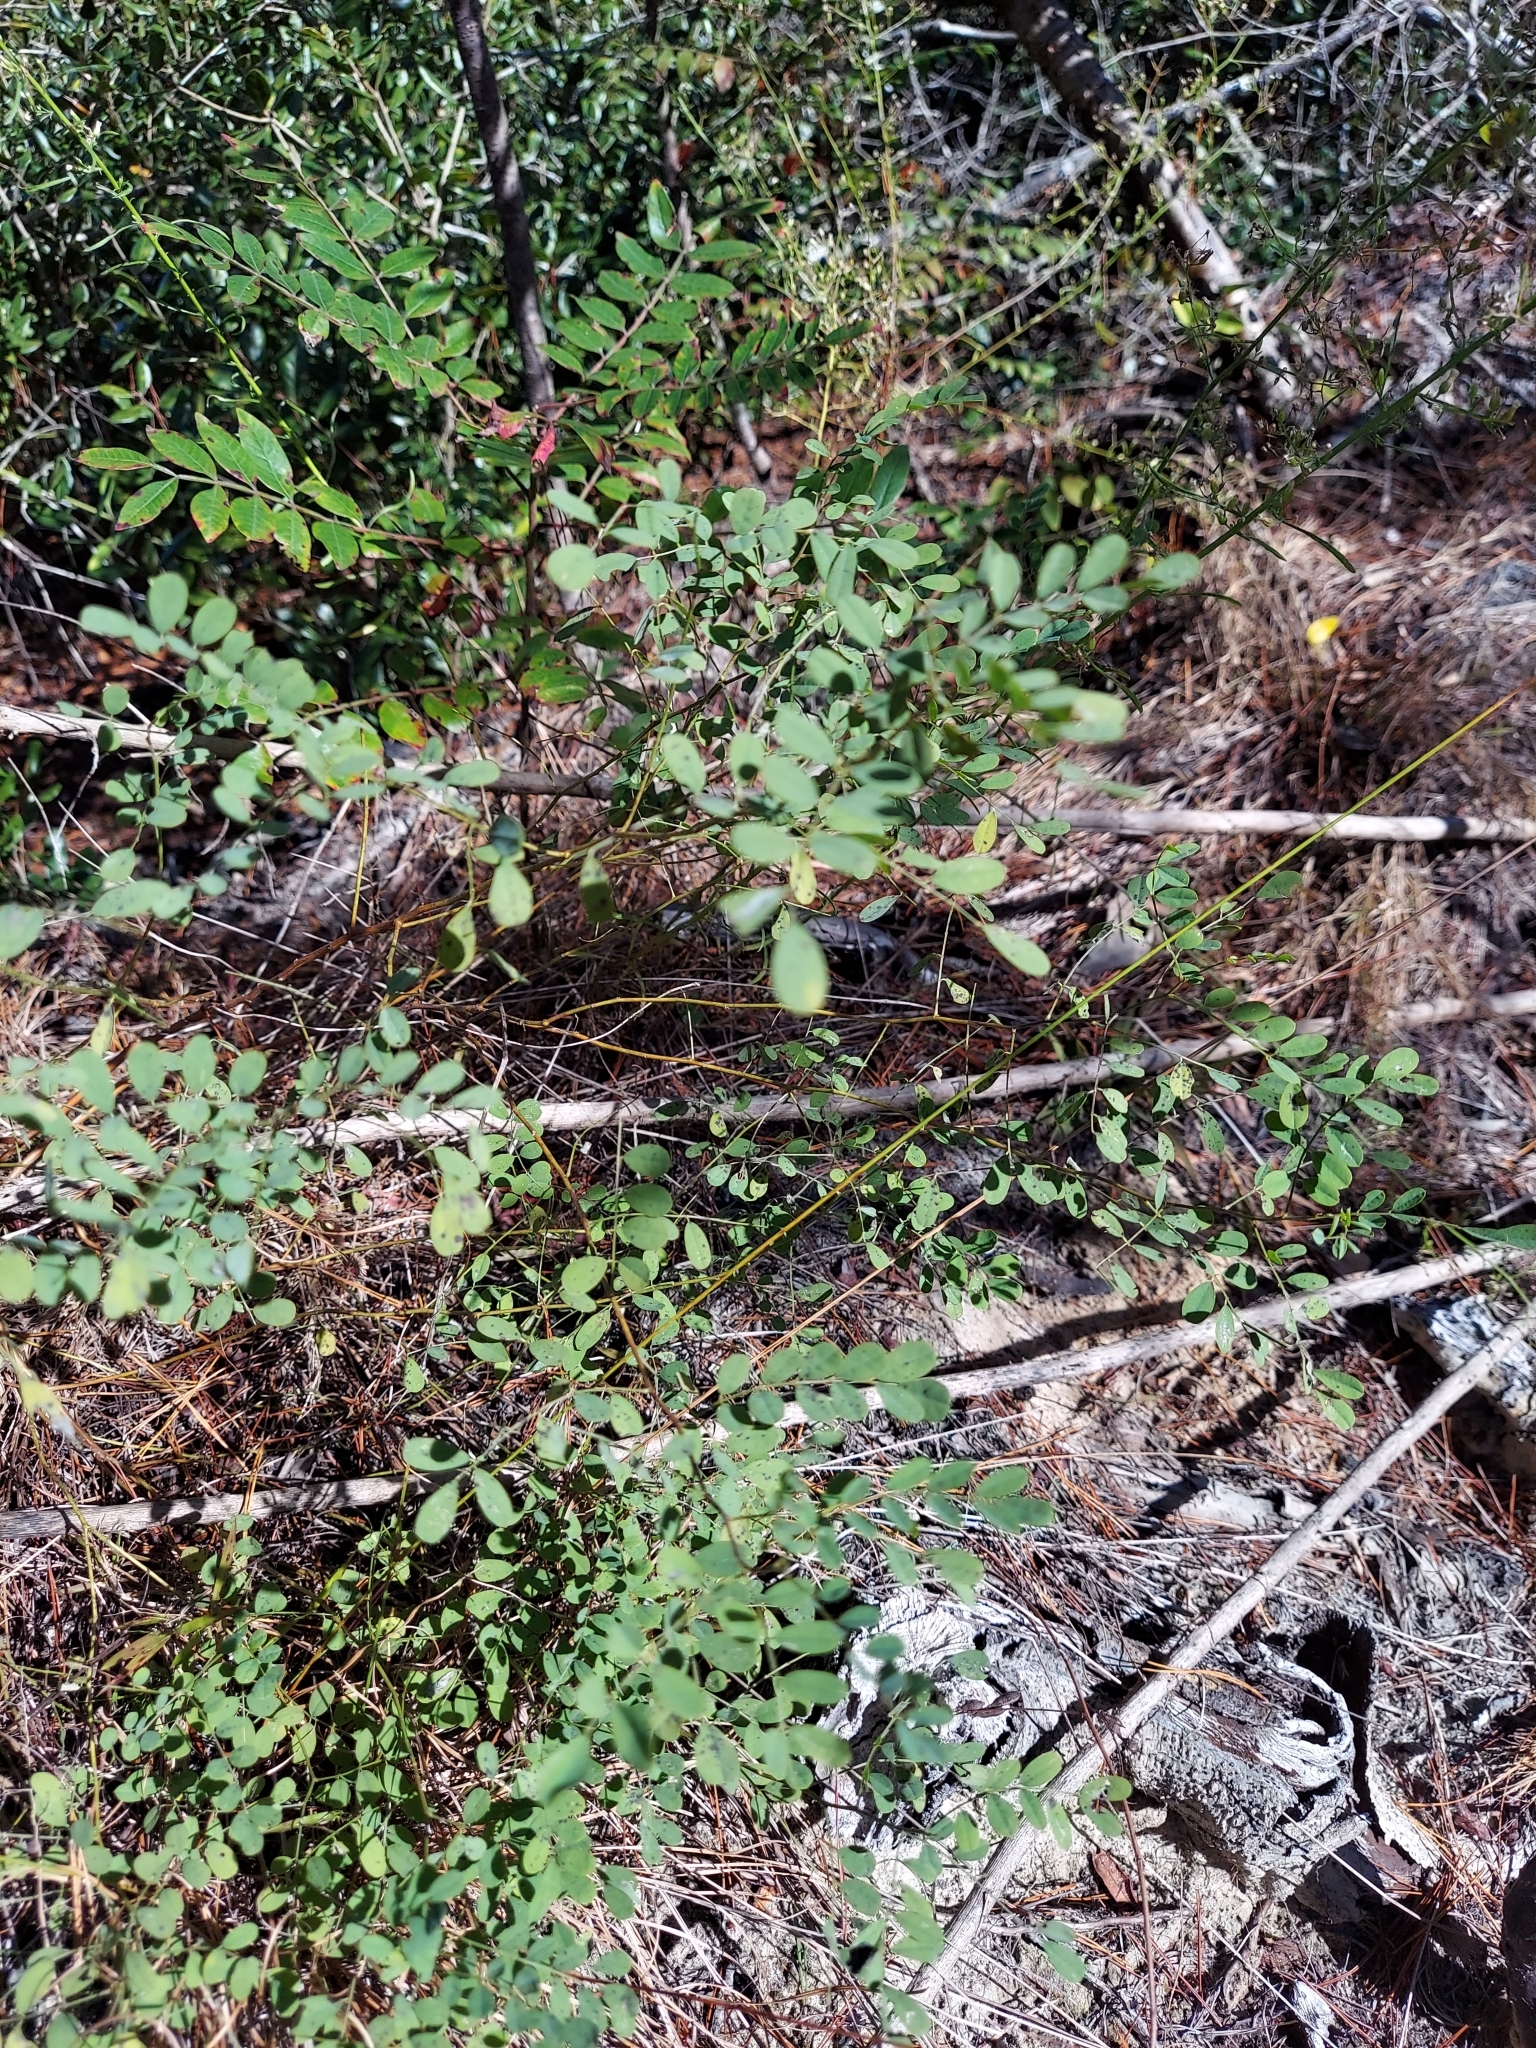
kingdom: Plantae
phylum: Tracheophyta
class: Magnoliopsida
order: Fabales
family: Fabaceae
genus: Indigofera
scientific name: Indigofera caroliniana
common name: Wild indigo
